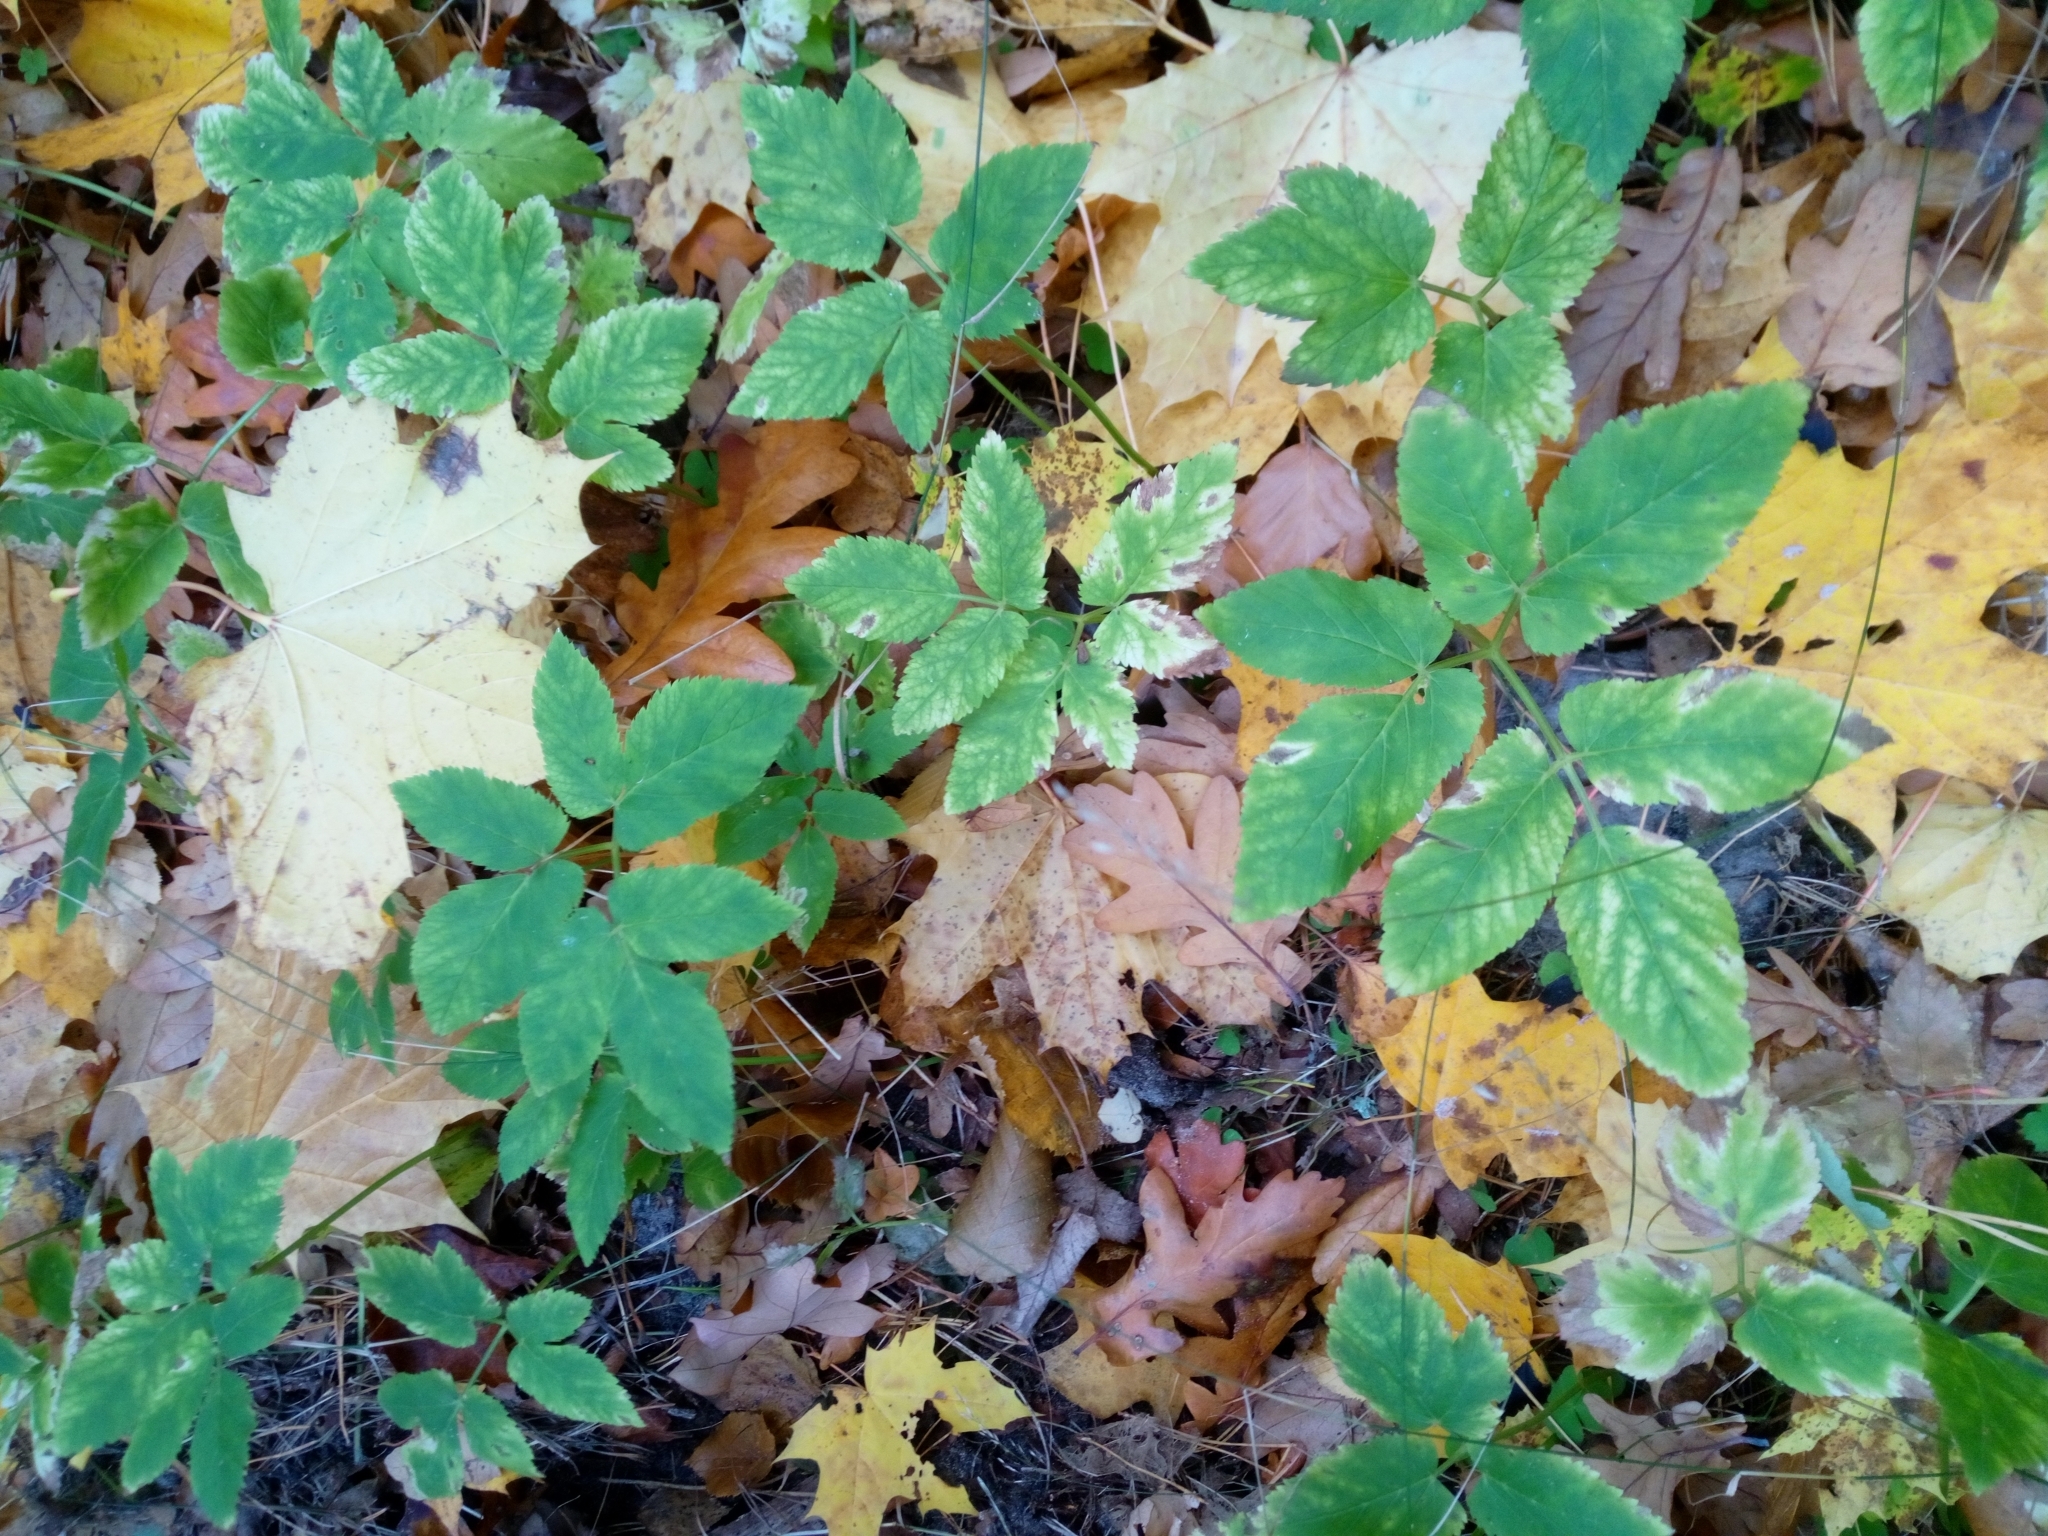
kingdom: Plantae
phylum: Tracheophyta
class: Magnoliopsida
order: Apiales
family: Apiaceae
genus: Aegopodium
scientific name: Aegopodium podagraria
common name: Ground-elder
